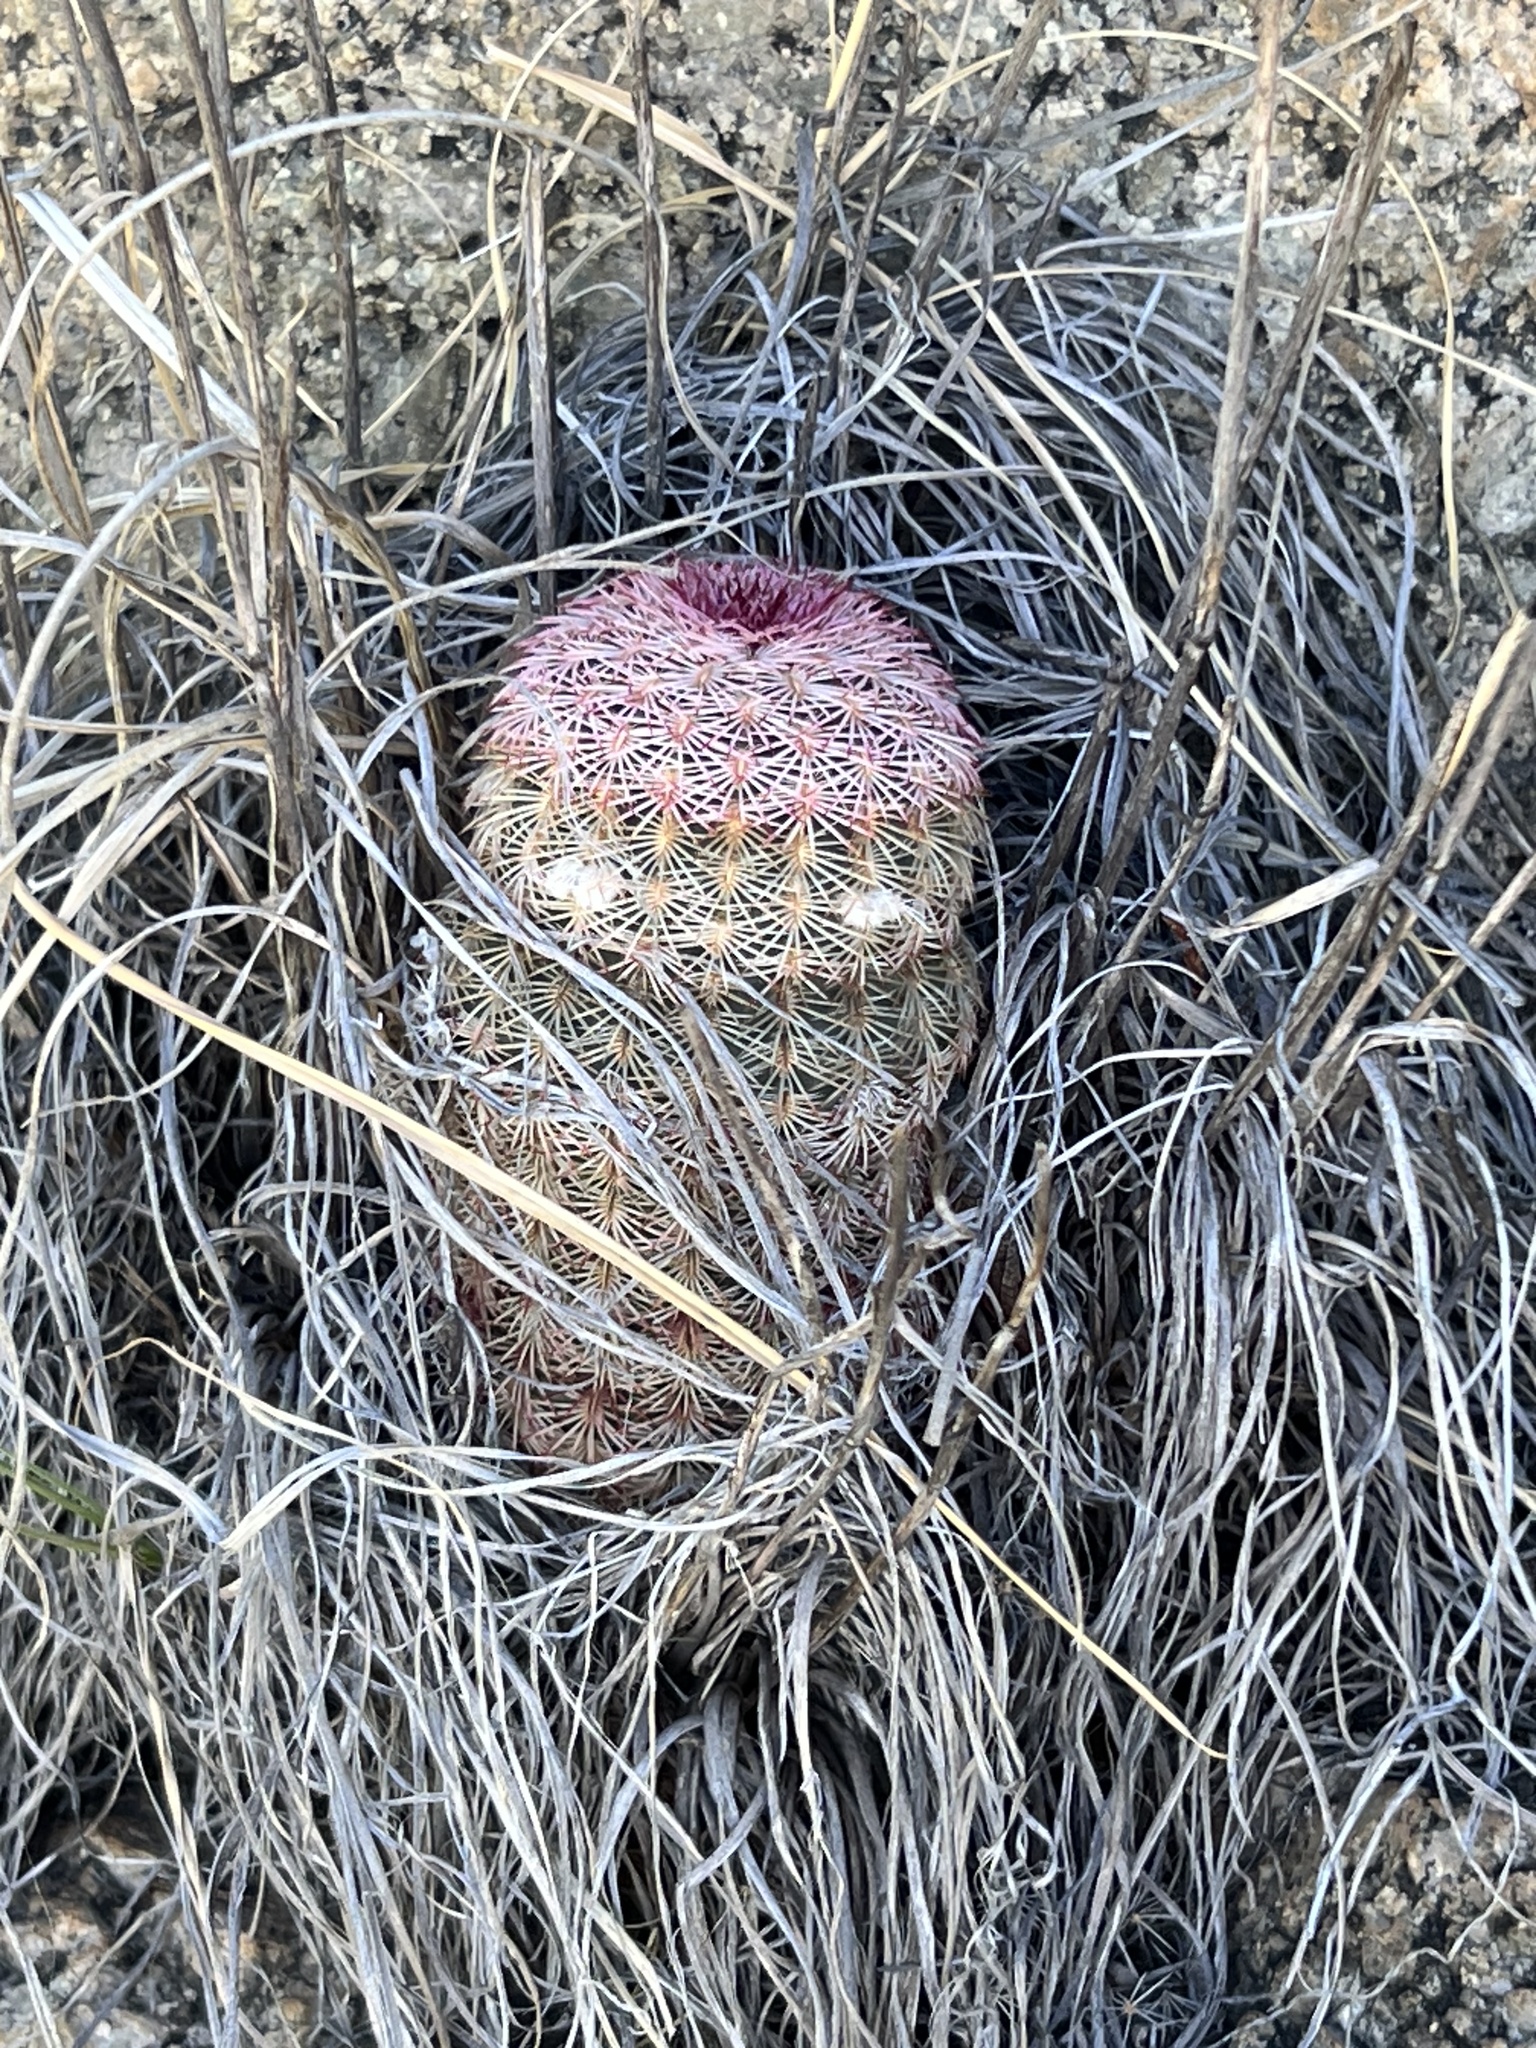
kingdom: Plantae
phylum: Tracheophyta
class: Magnoliopsida
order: Caryophyllales
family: Cactaceae
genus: Echinocereus
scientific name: Echinocereus rigidissimus
